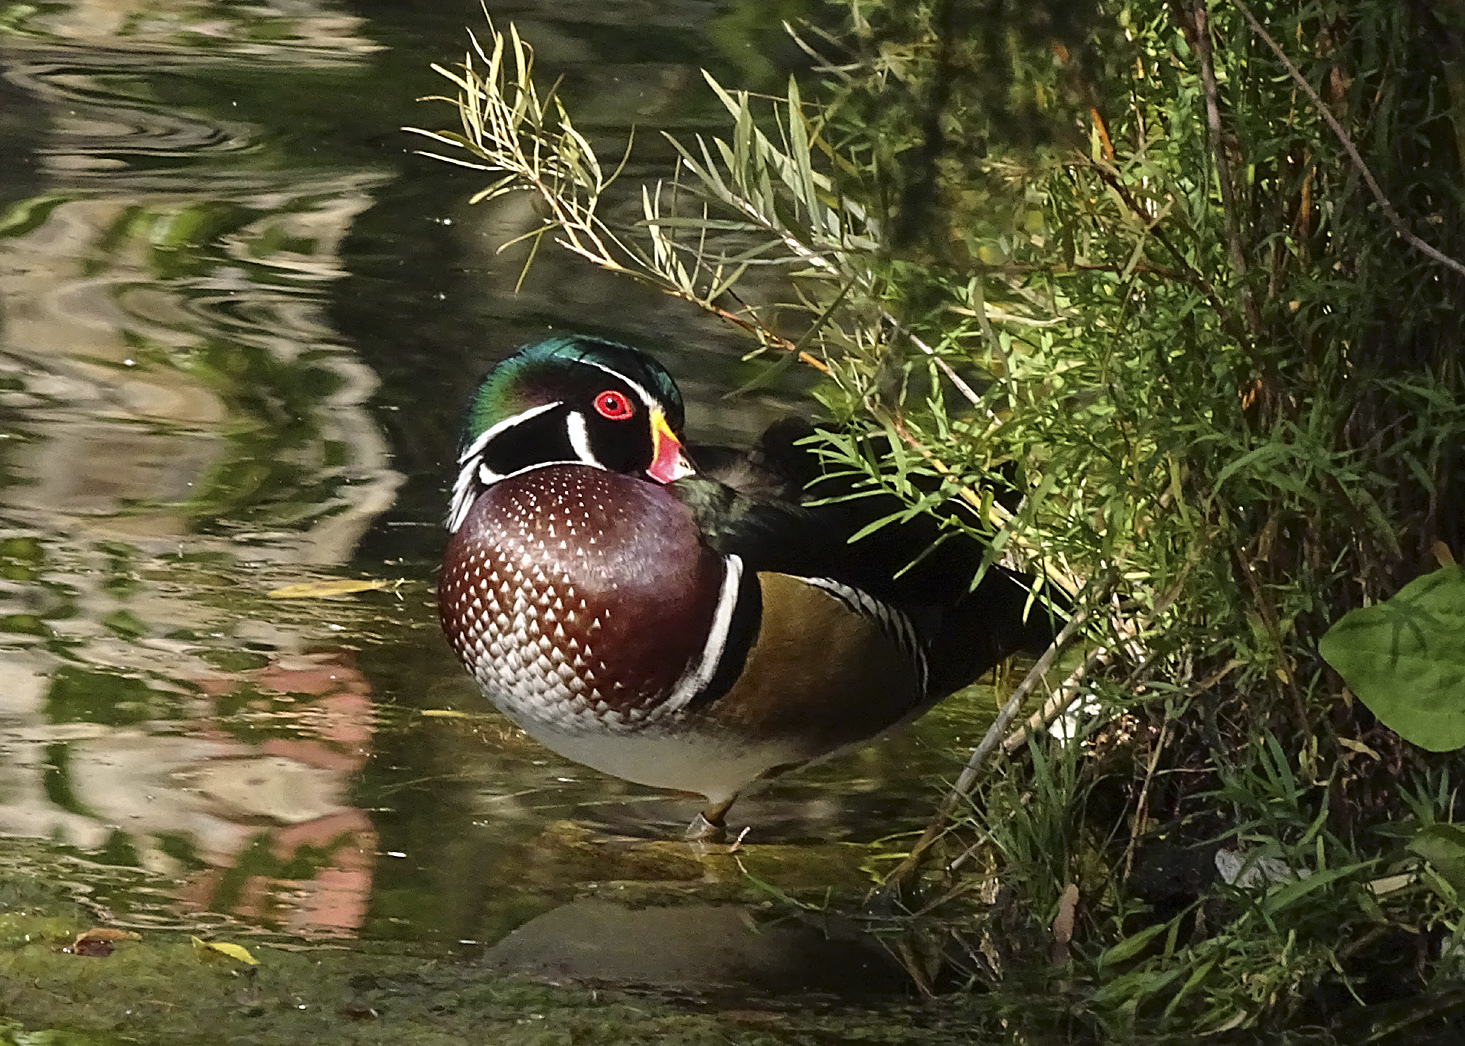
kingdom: Animalia
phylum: Chordata
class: Aves
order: Anseriformes
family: Anatidae
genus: Aix
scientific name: Aix sponsa
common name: Wood duck
